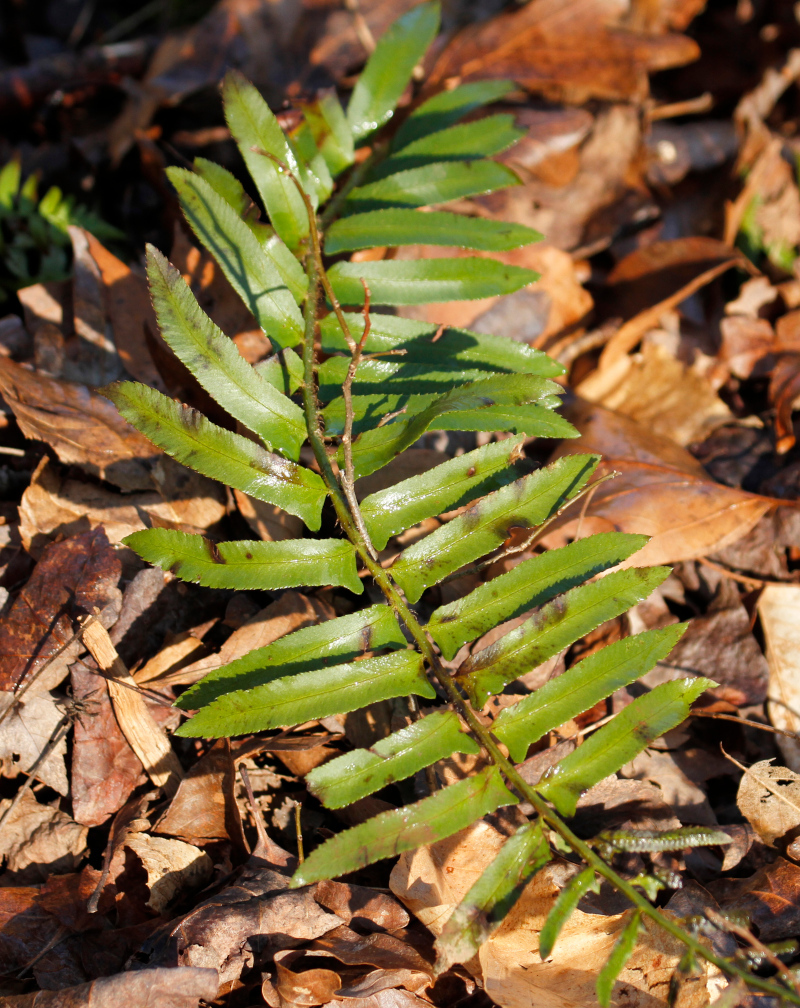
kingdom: Plantae
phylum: Tracheophyta
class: Polypodiopsida
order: Polypodiales
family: Dryopteridaceae
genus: Polystichum
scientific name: Polystichum acrostichoides
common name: Christmas fern
